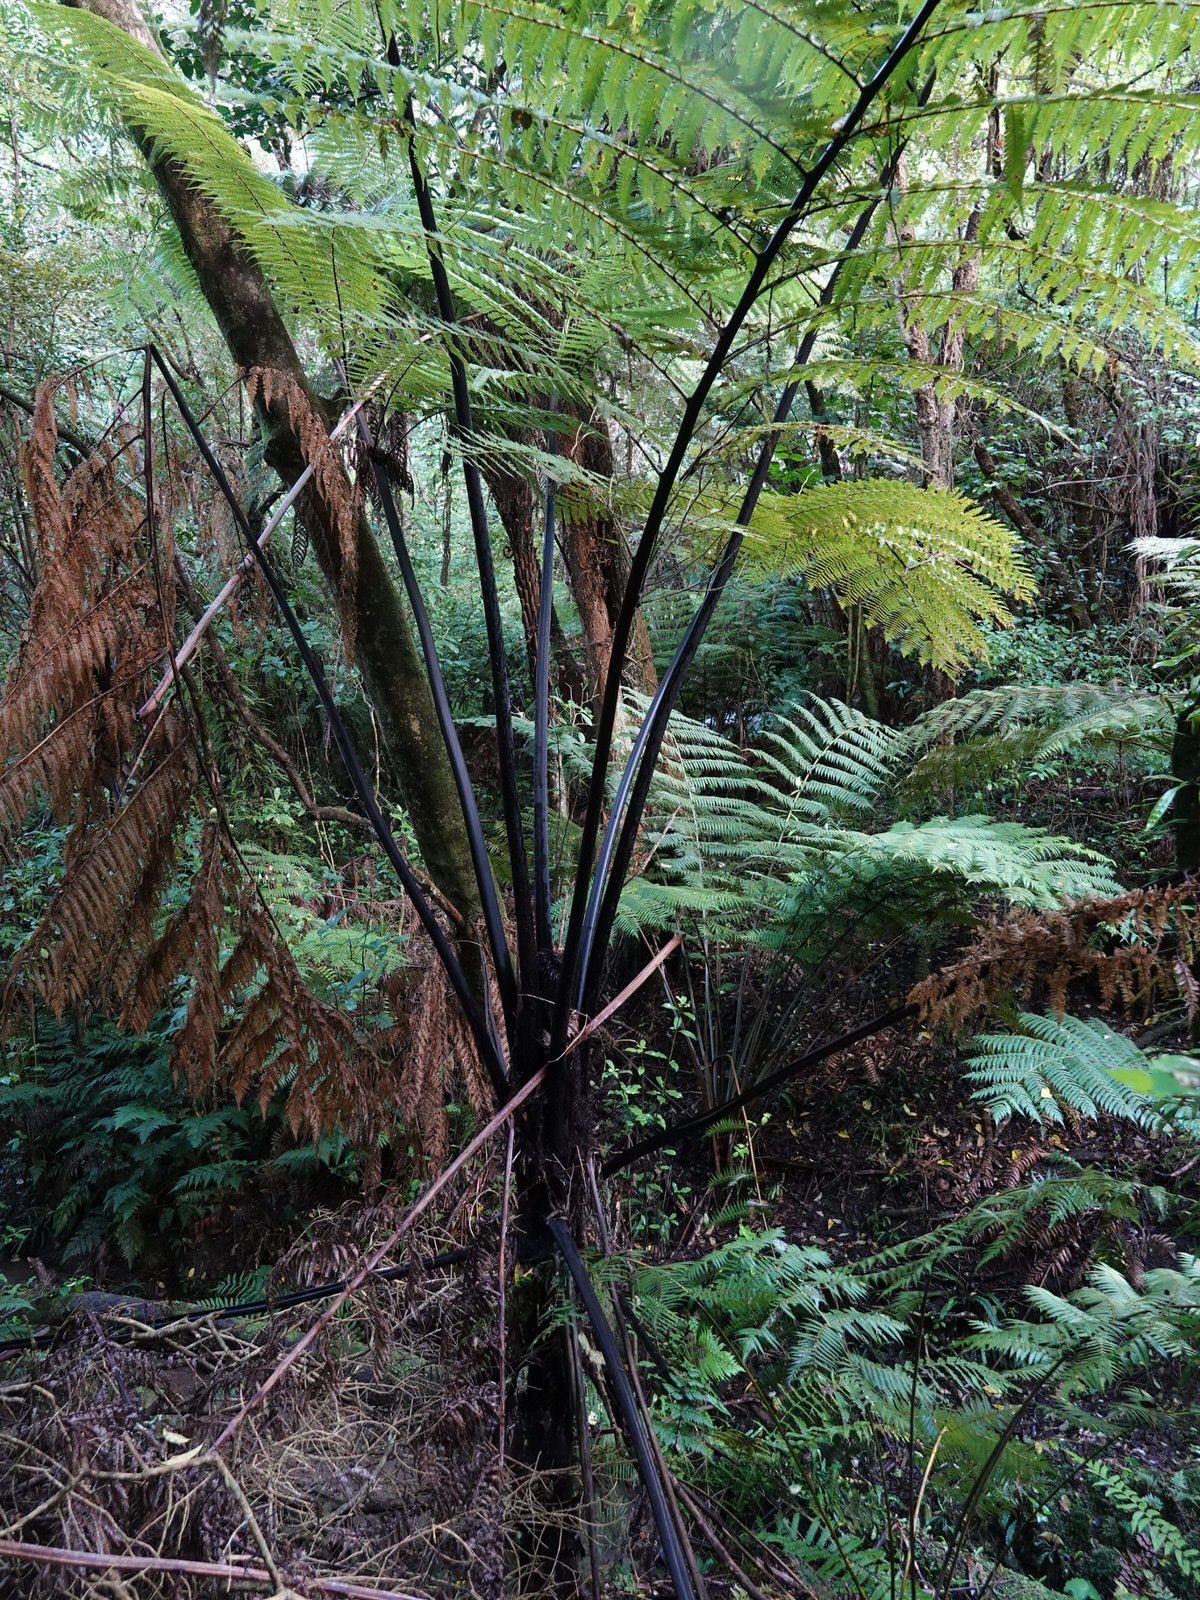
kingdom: Plantae
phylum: Tracheophyta
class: Polypodiopsida
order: Cyatheales
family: Cyatheaceae
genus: Sphaeropteris
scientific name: Sphaeropteris medullaris
